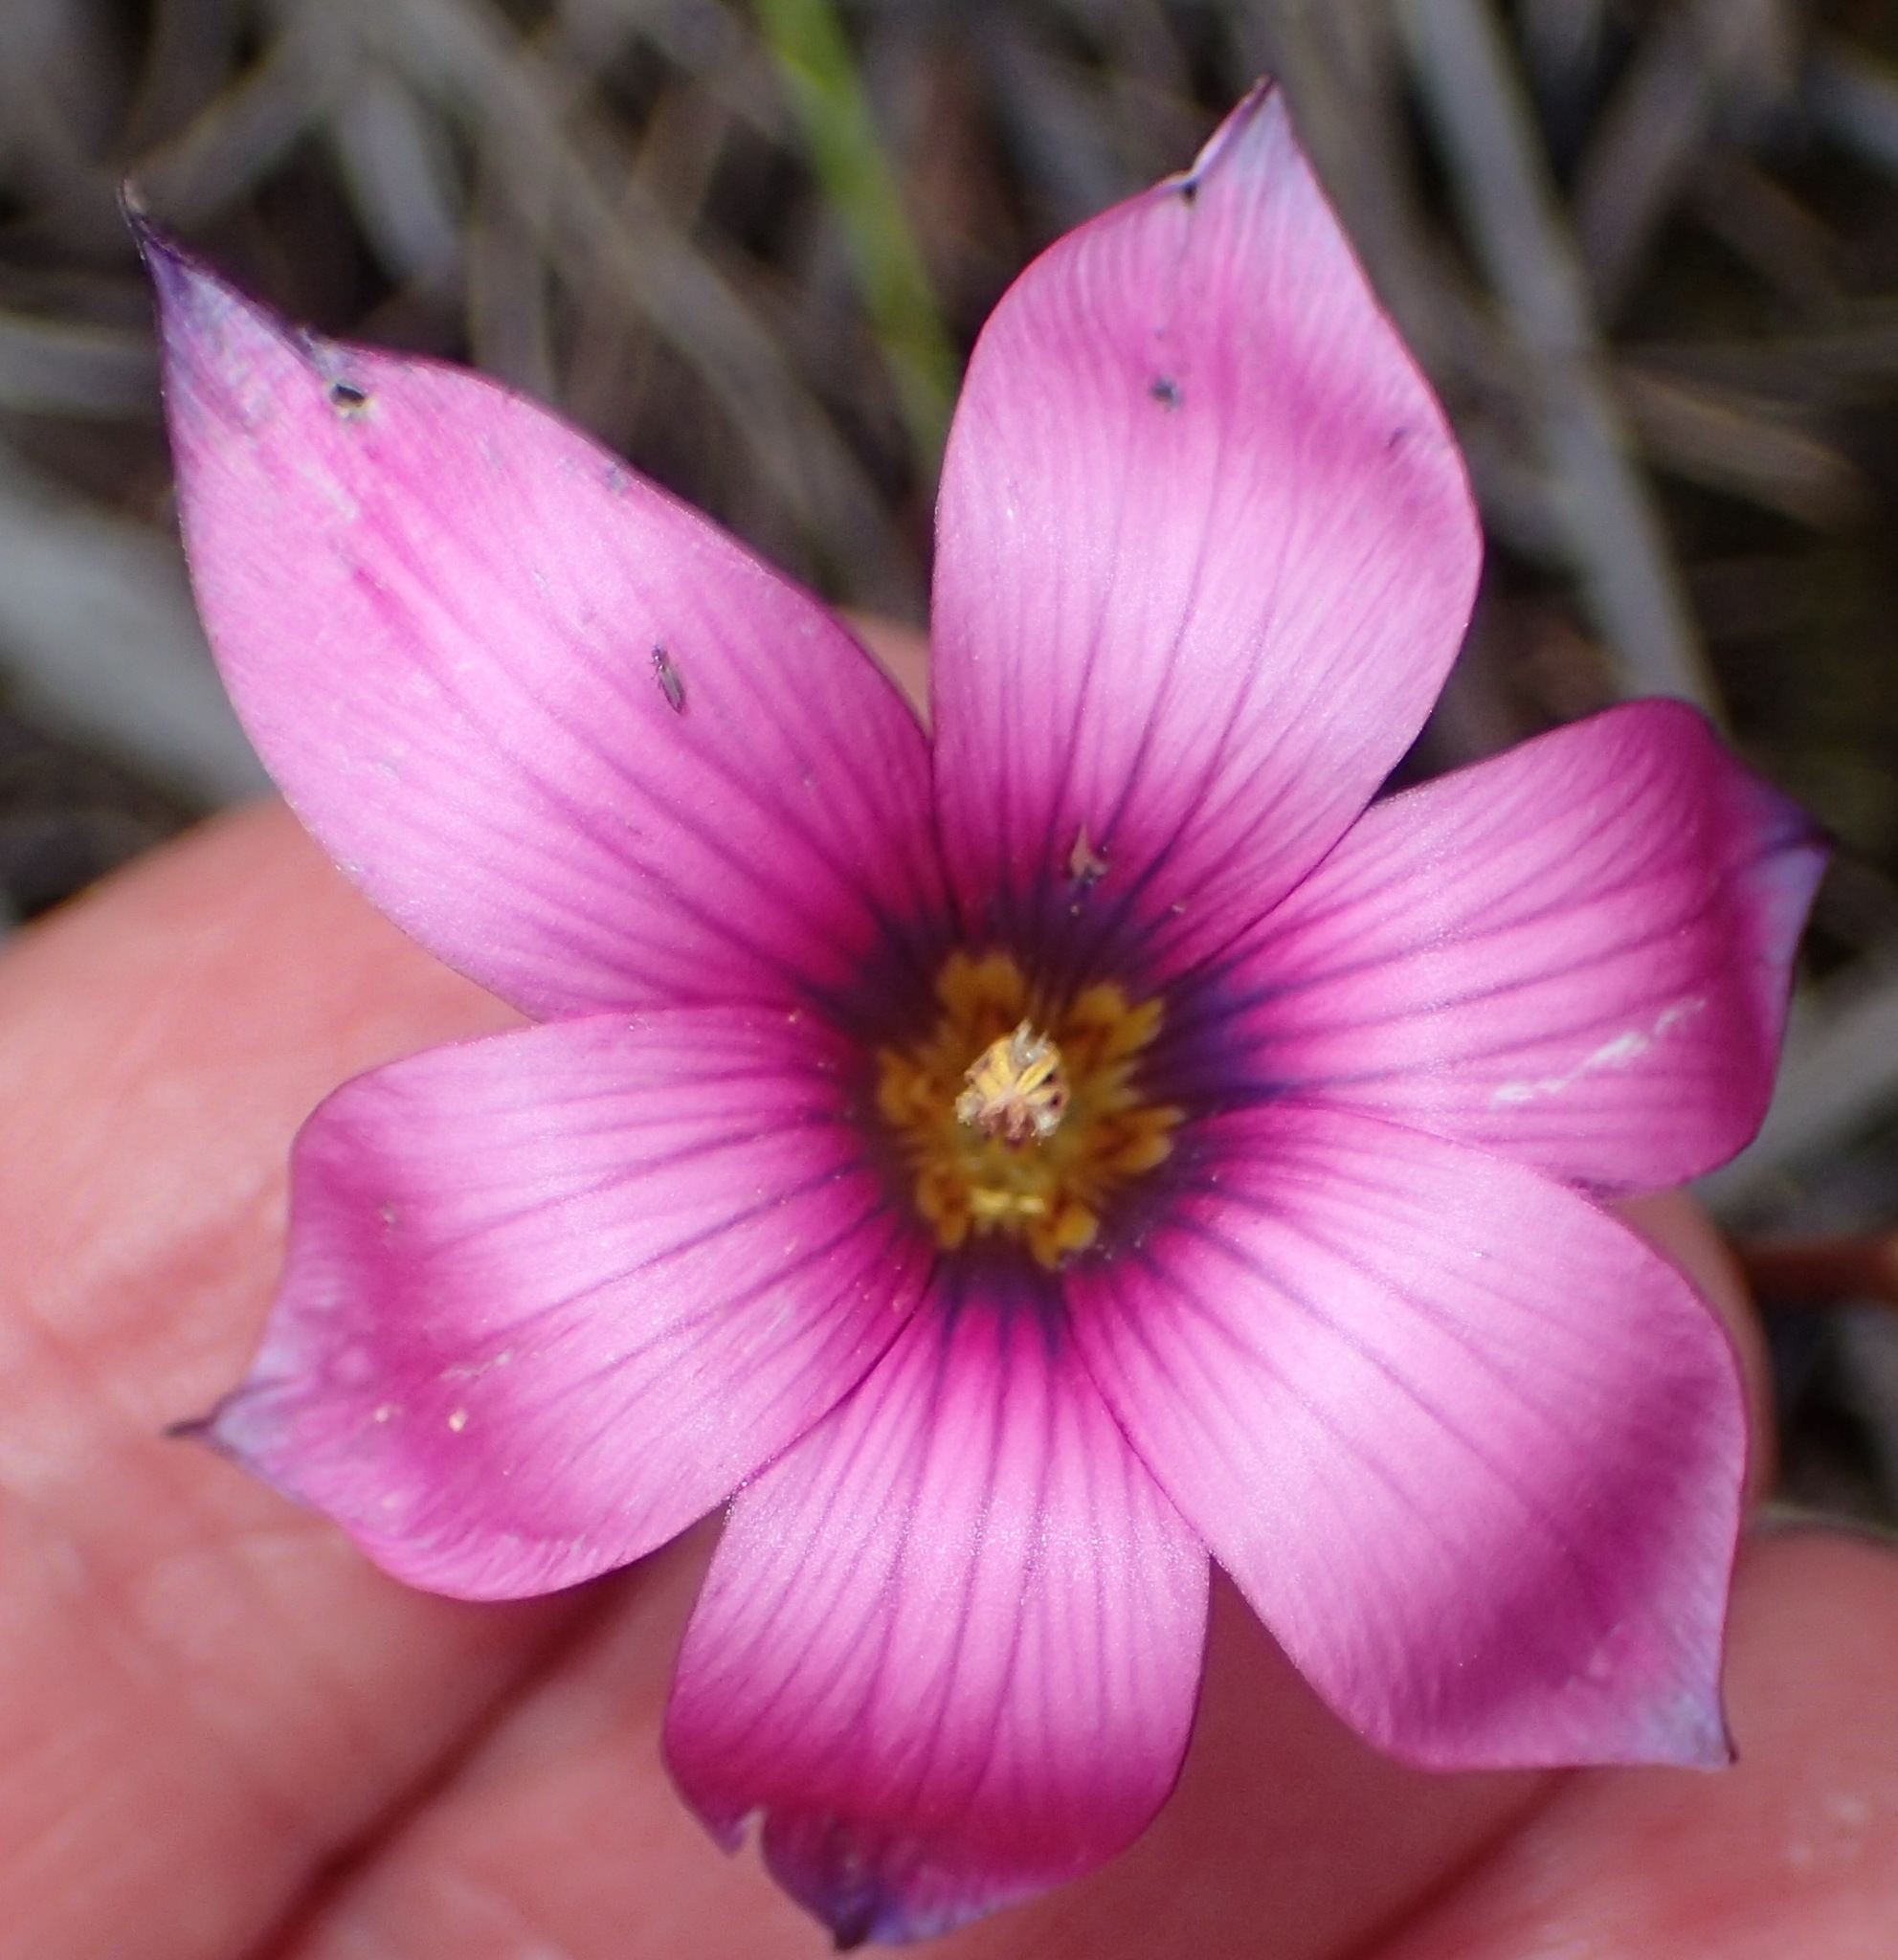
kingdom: Plantae
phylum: Tracheophyta
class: Liliopsida
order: Asparagales
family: Iridaceae
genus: Romulea
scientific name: Romulea cruciata
